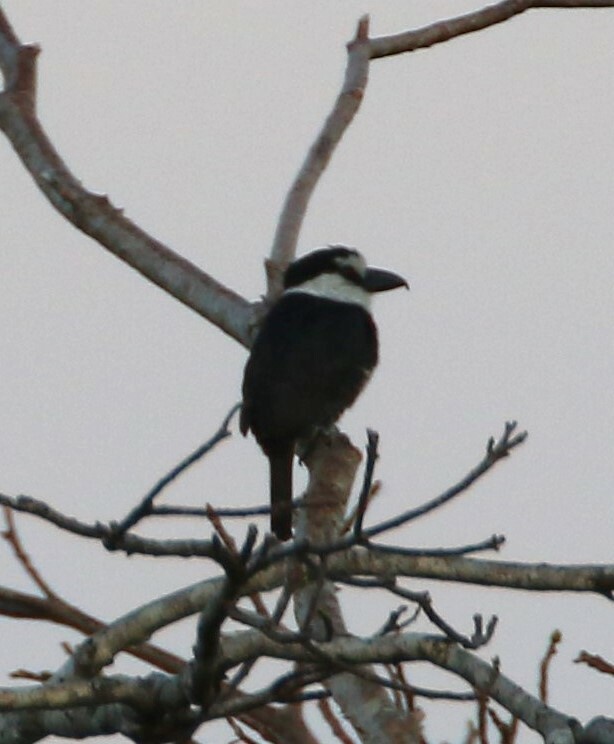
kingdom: Animalia
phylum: Chordata
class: Aves
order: Piciformes
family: Bucconidae
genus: Notharchus
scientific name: Notharchus hyperrhynchus
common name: White-necked puffbird
